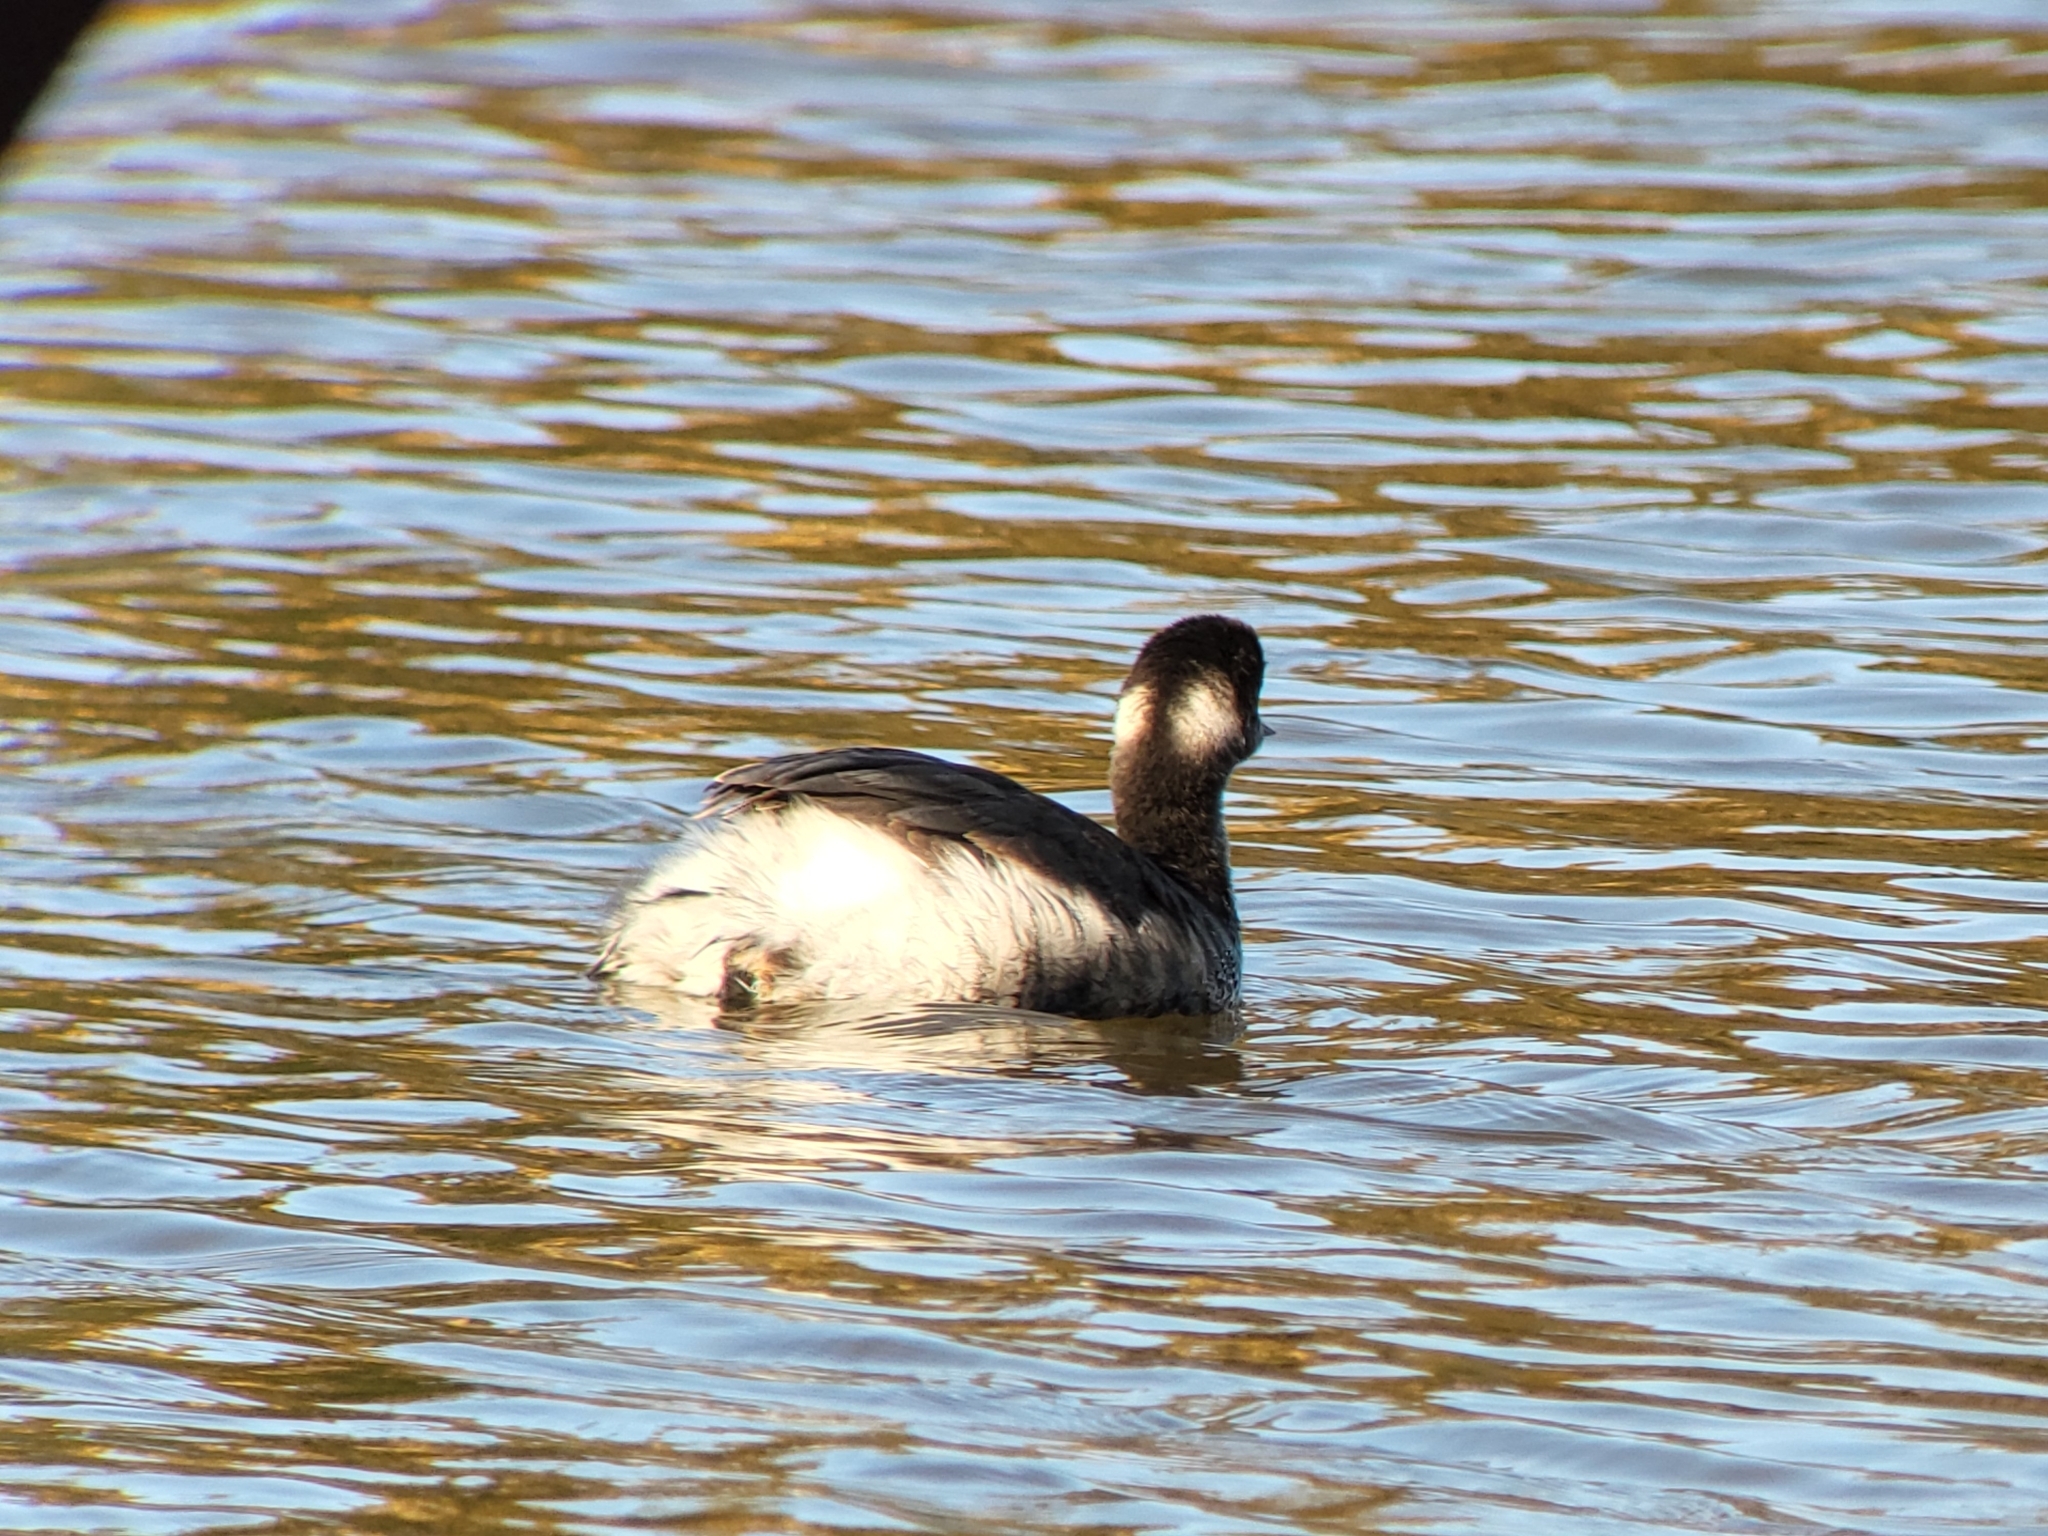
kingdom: Animalia
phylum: Chordata
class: Aves
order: Podicipediformes
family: Podicipedidae
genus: Podiceps
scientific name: Podiceps nigricollis
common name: Black-necked grebe
